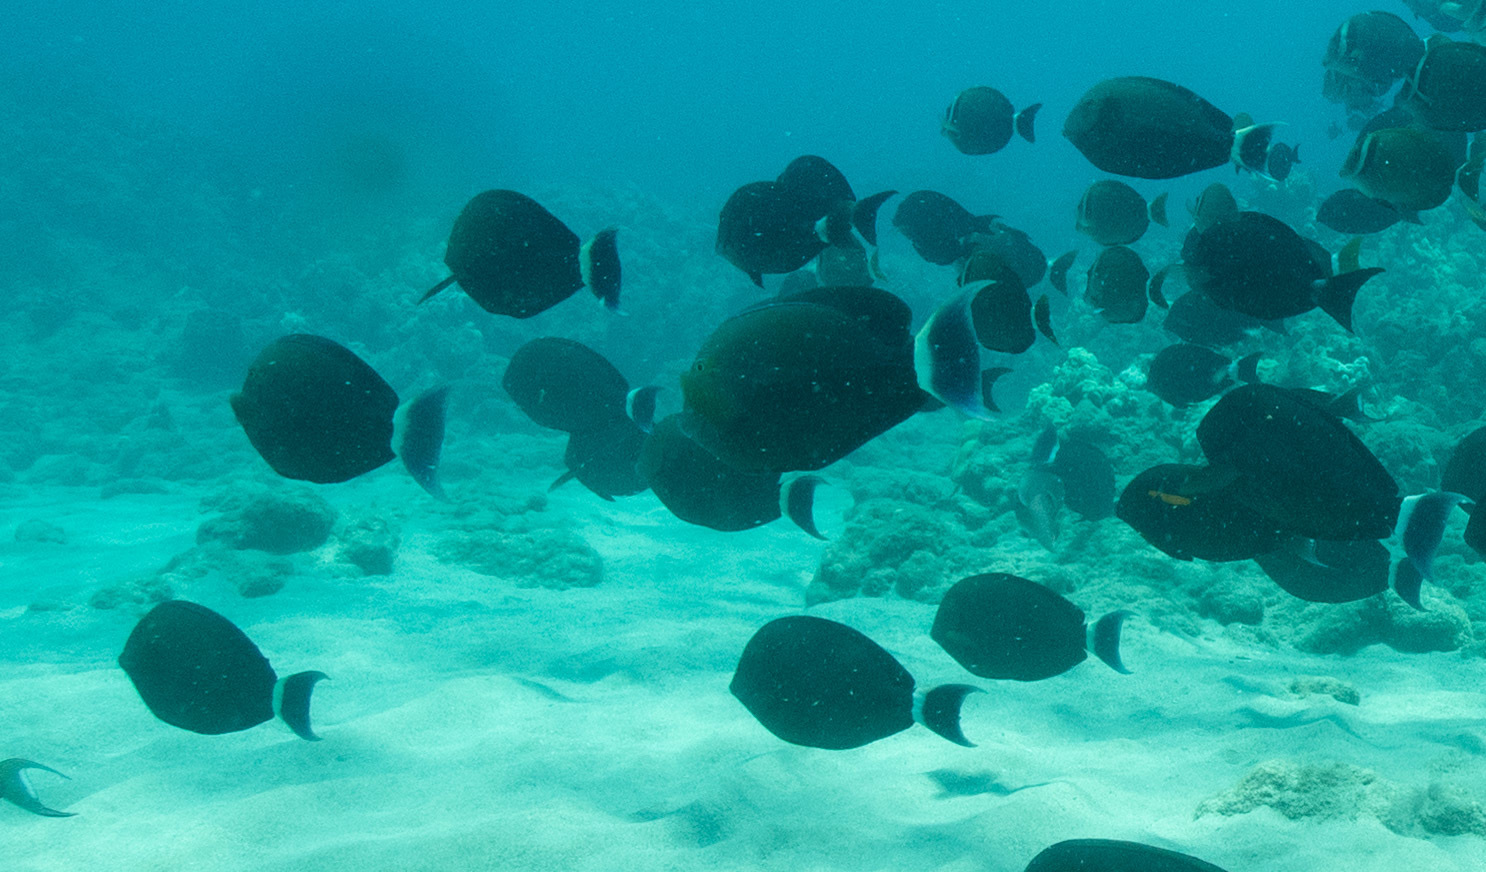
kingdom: Animalia
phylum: Chordata
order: Perciformes
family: Acanthuridae
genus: Acanthurus
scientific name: Acanthurus blochii
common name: Blue-banded pualu
